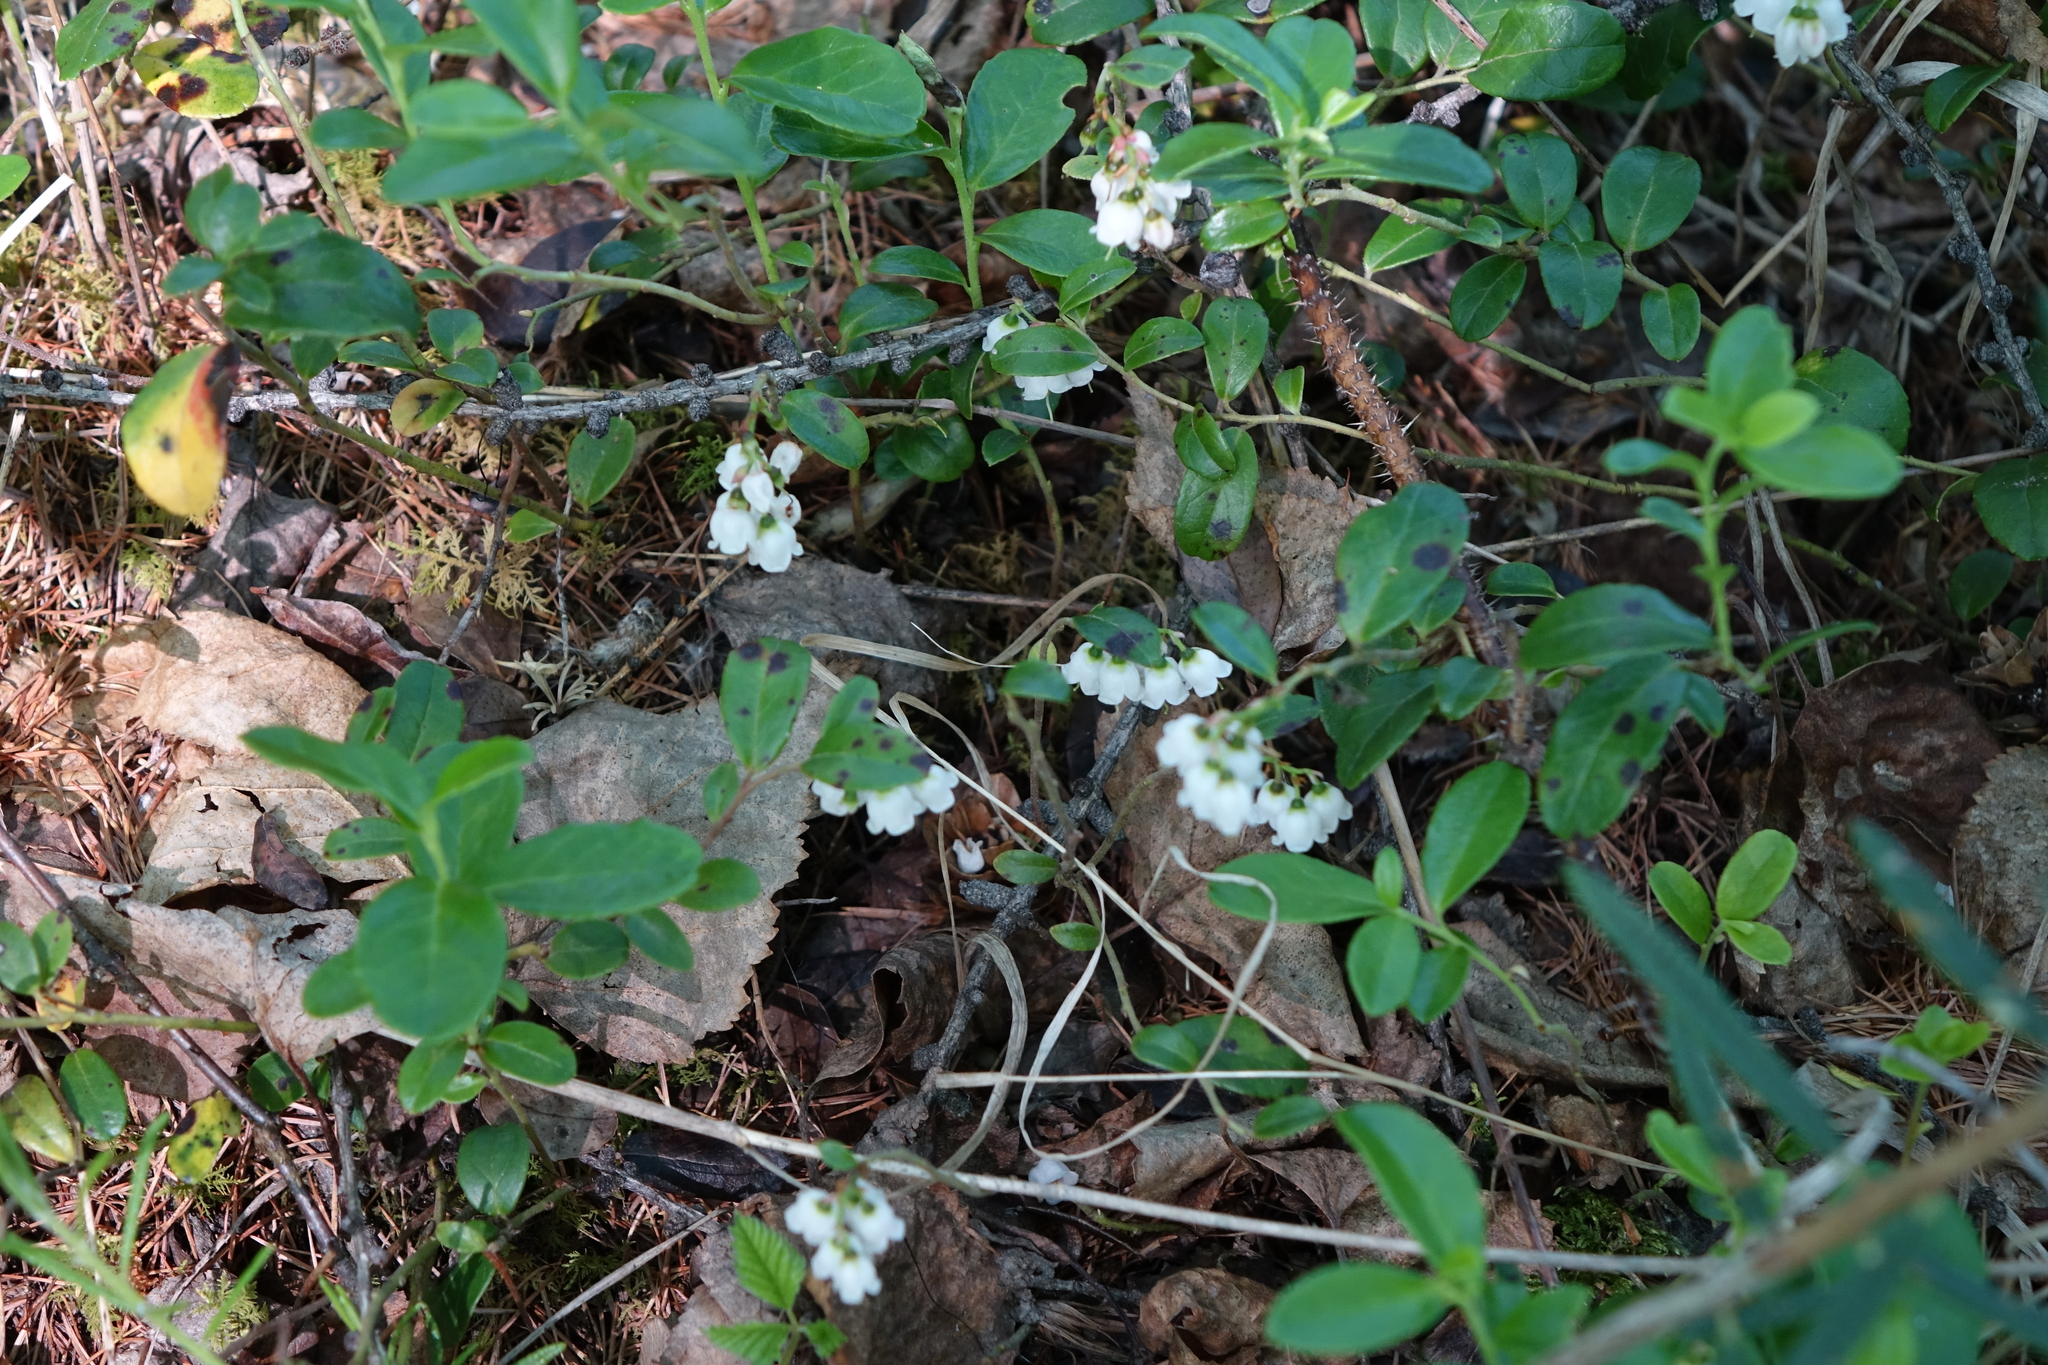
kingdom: Plantae
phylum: Tracheophyta
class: Magnoliopsida
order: Ericales
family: Ericaceae
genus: Vaccinium
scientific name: Vaccinium vitis-idaea
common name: Cowberry
